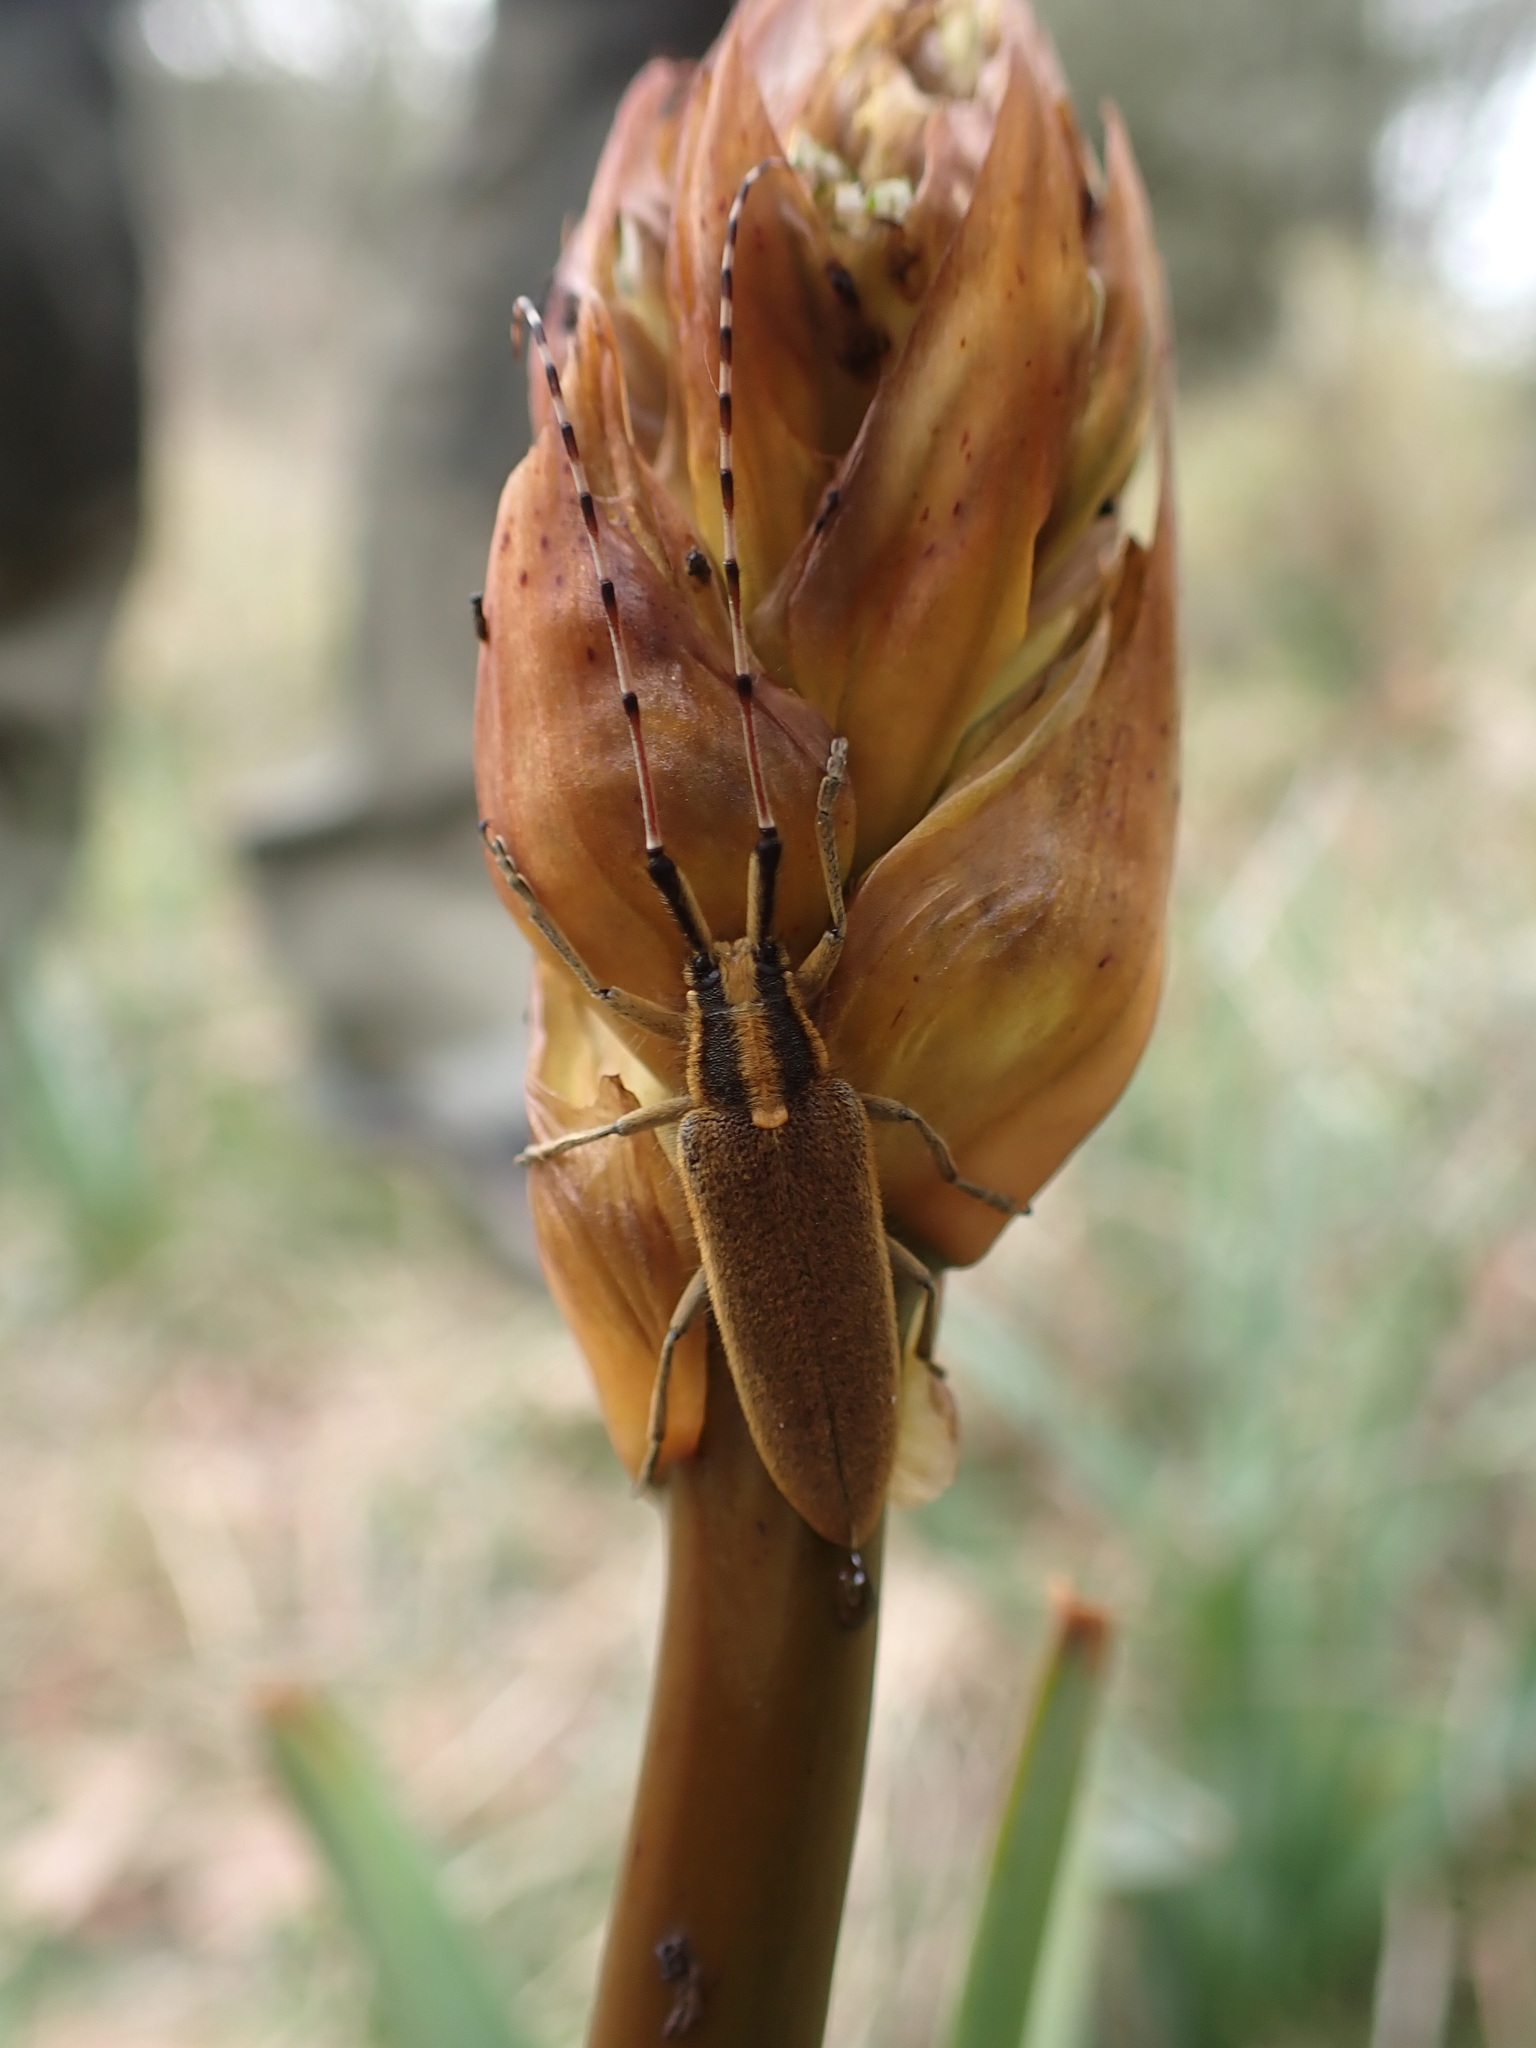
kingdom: Animalia
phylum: Arthropoda
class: Insecta
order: Coleoptera
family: Cerambycidae
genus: Agapanthia
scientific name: Agapanthia asphodeli
